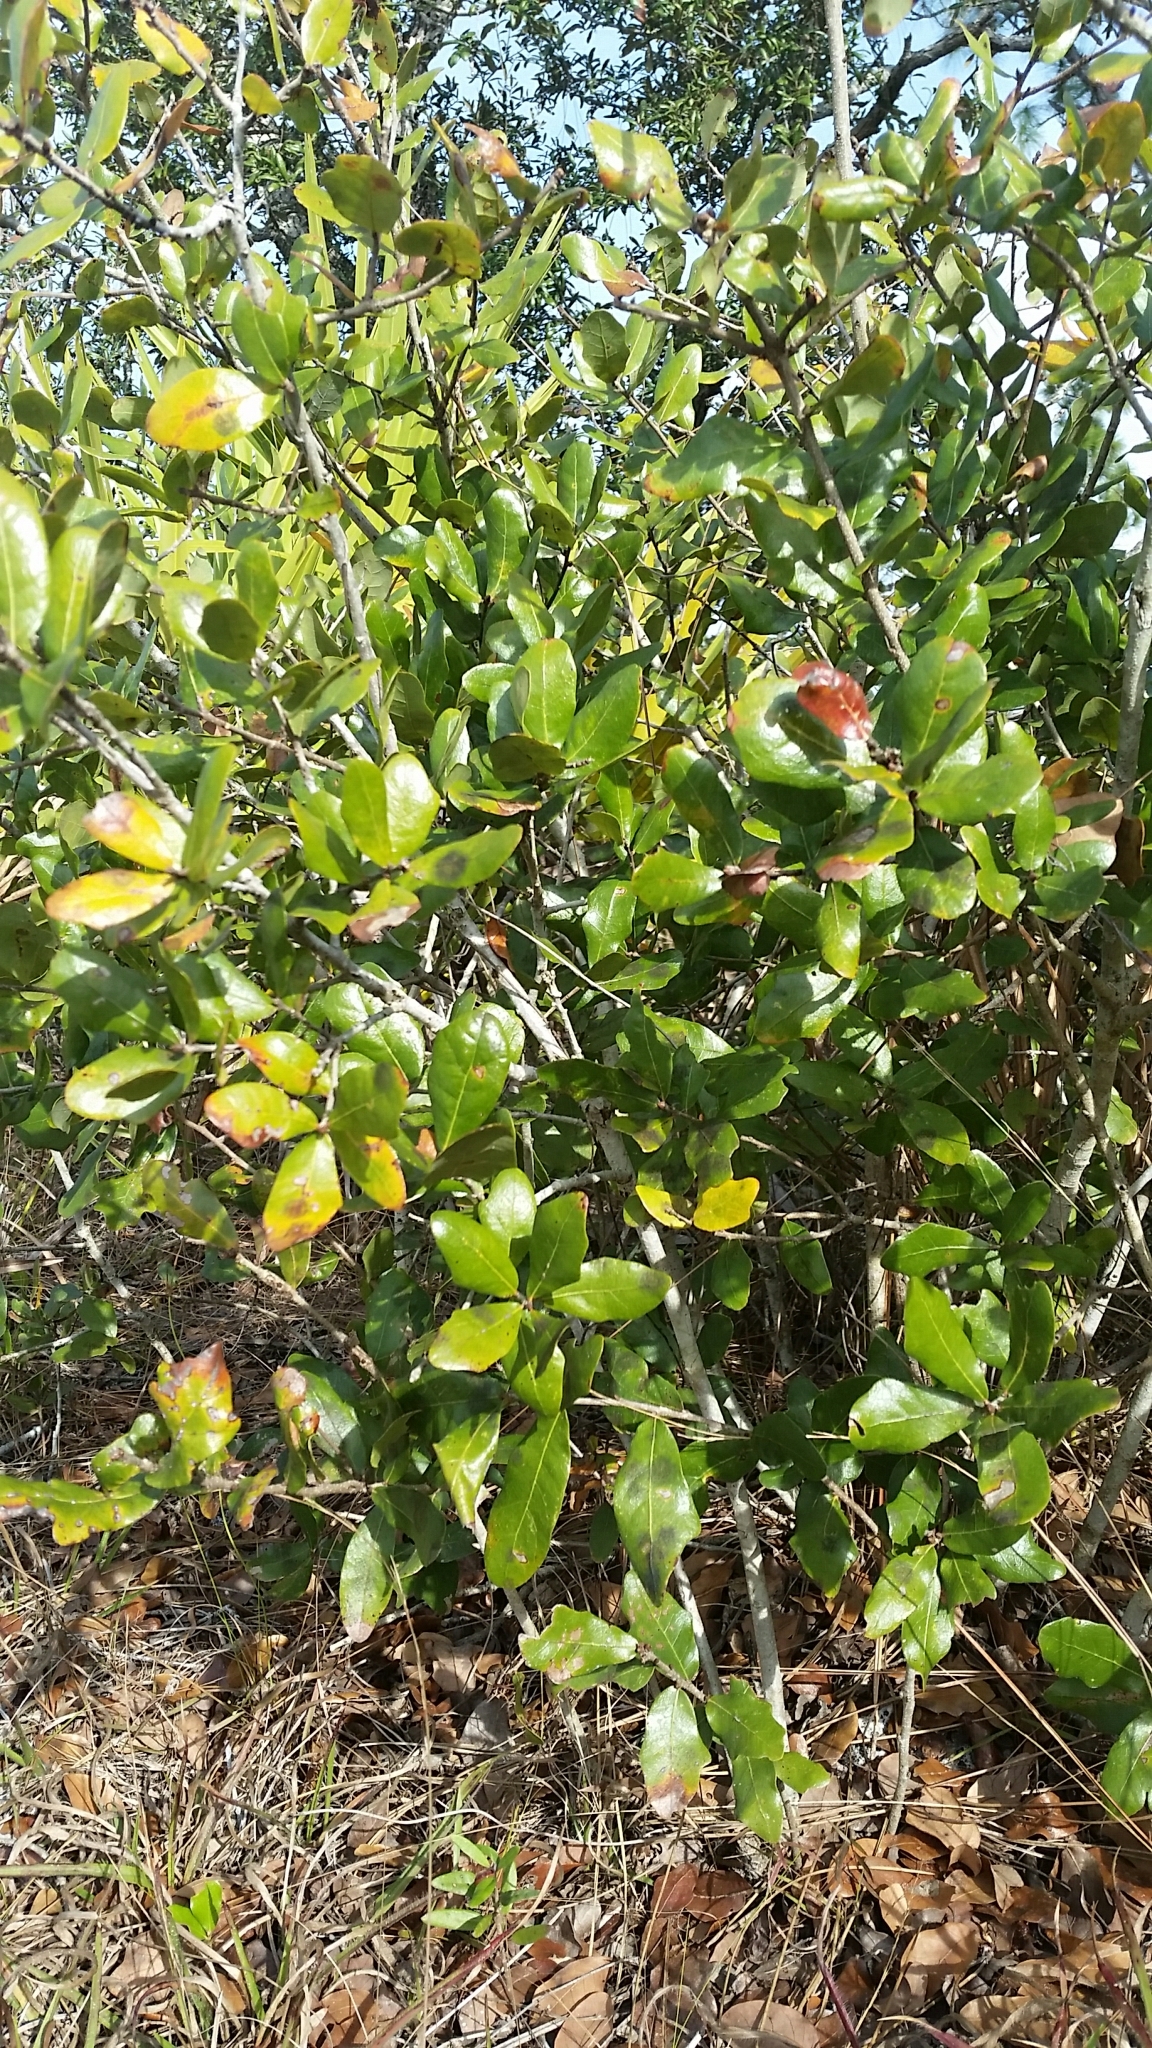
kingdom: Plantae
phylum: Tracheophyta
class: Magnoliopsida
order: Fagales
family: Fagaceae
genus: Quercus
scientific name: Quercus chapmanii
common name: Chapman oak
